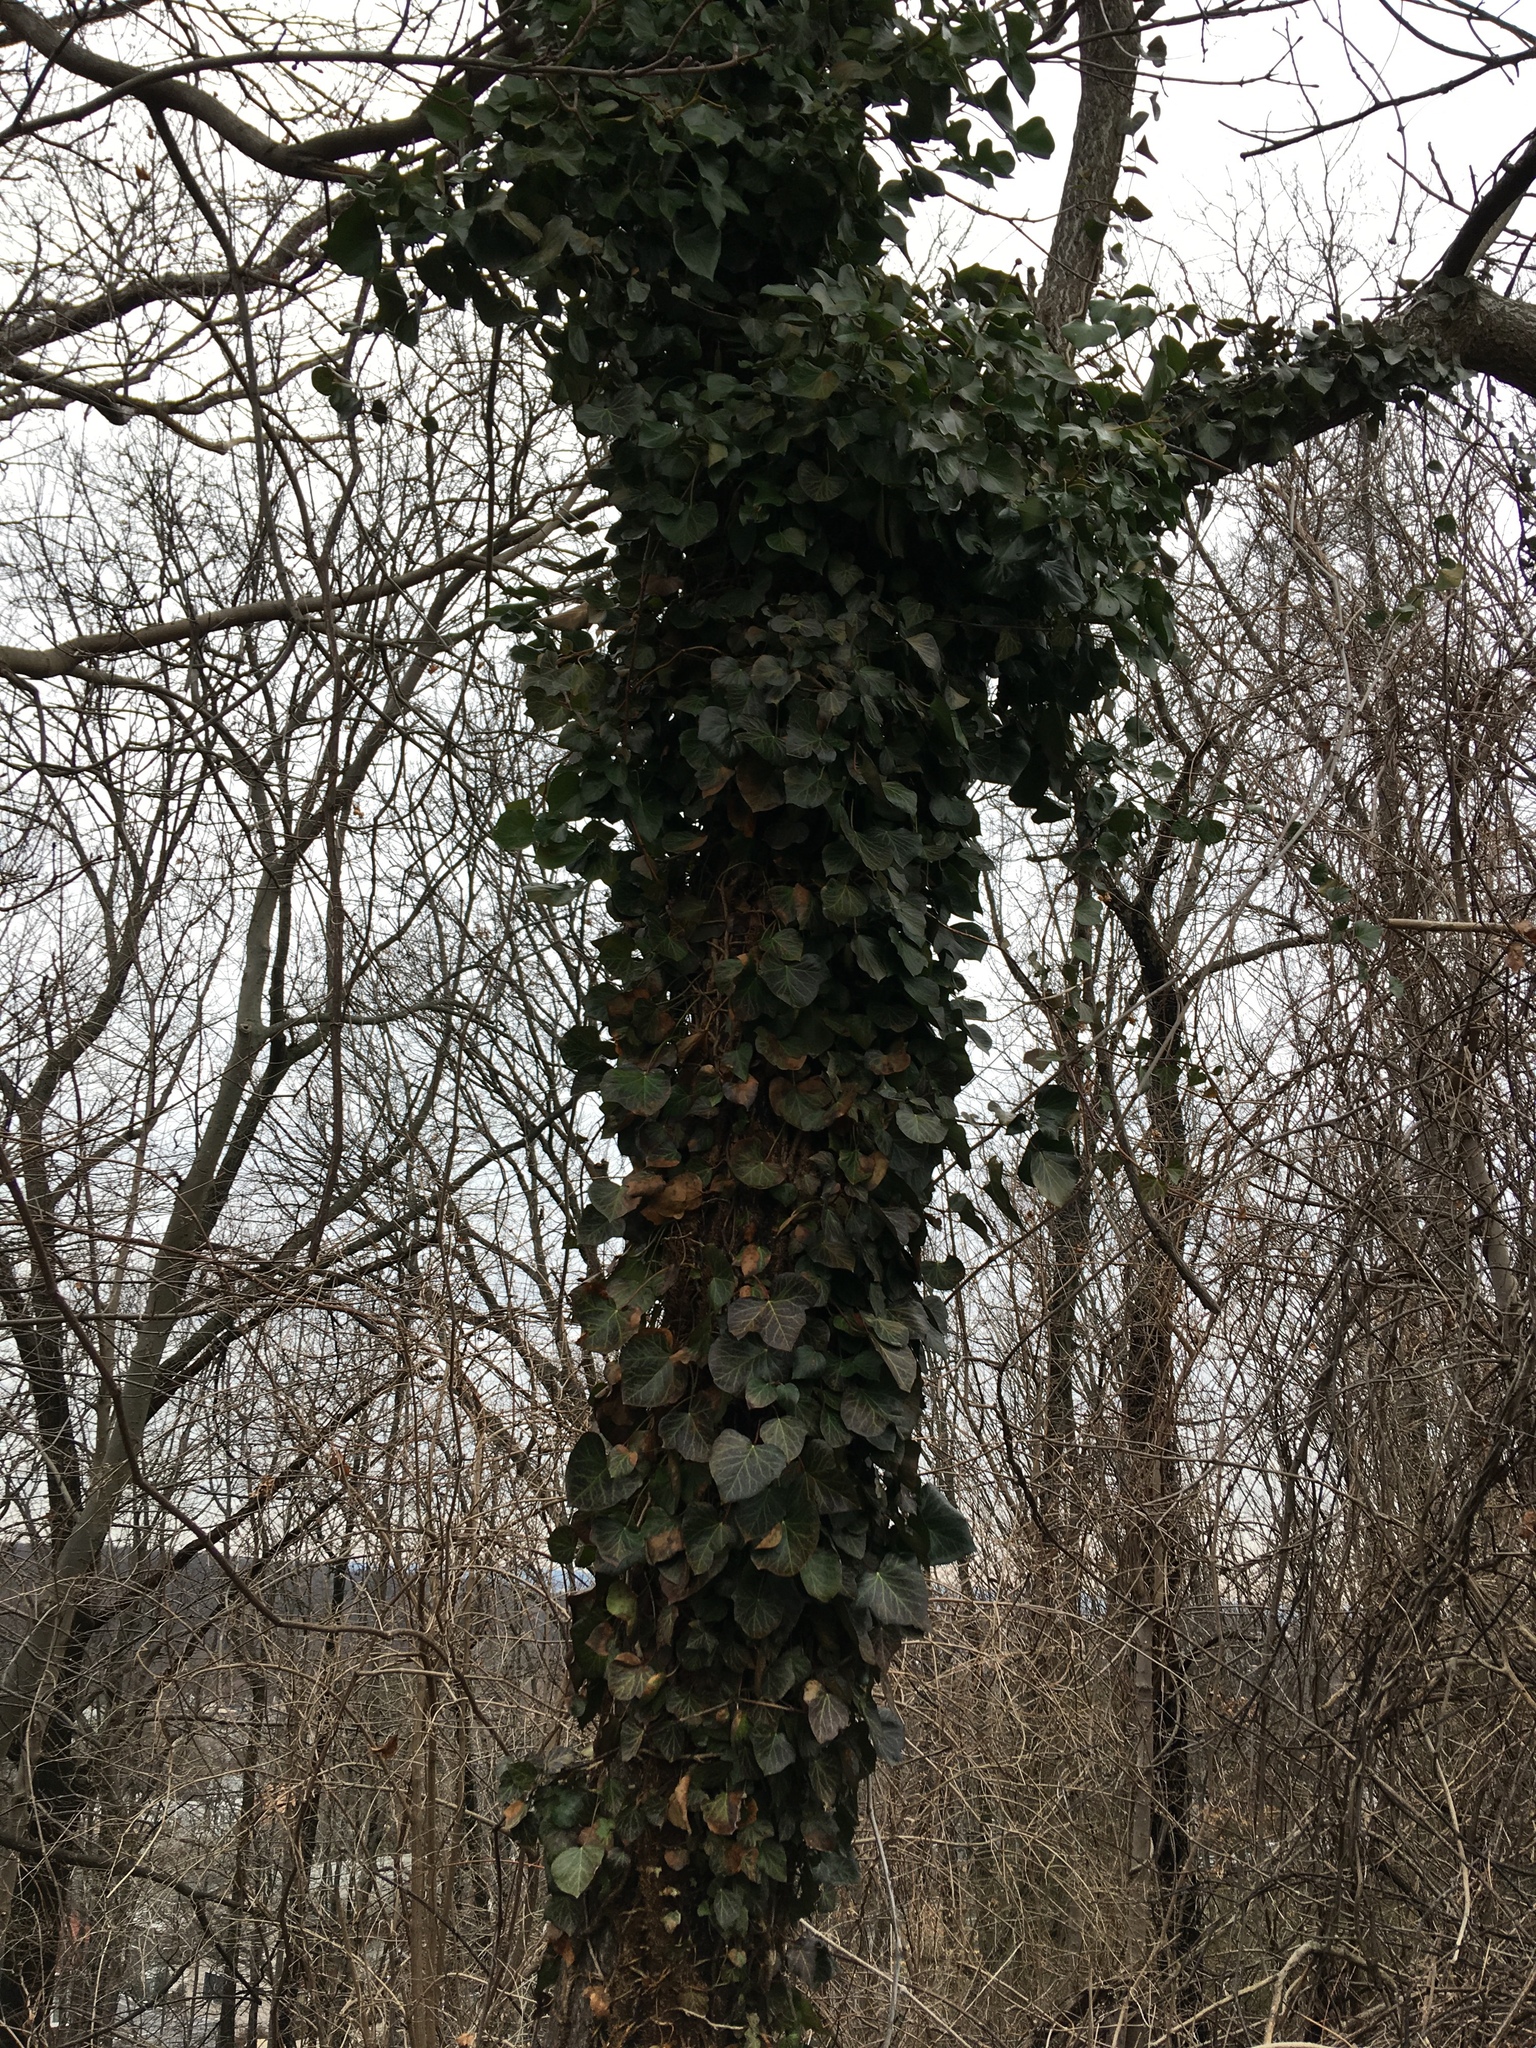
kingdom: Plantae
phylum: Tracheophyta
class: Magnoliopsida
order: Apiales
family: Araliaceae
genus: Hedera
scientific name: Hedera helix
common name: Ivy
